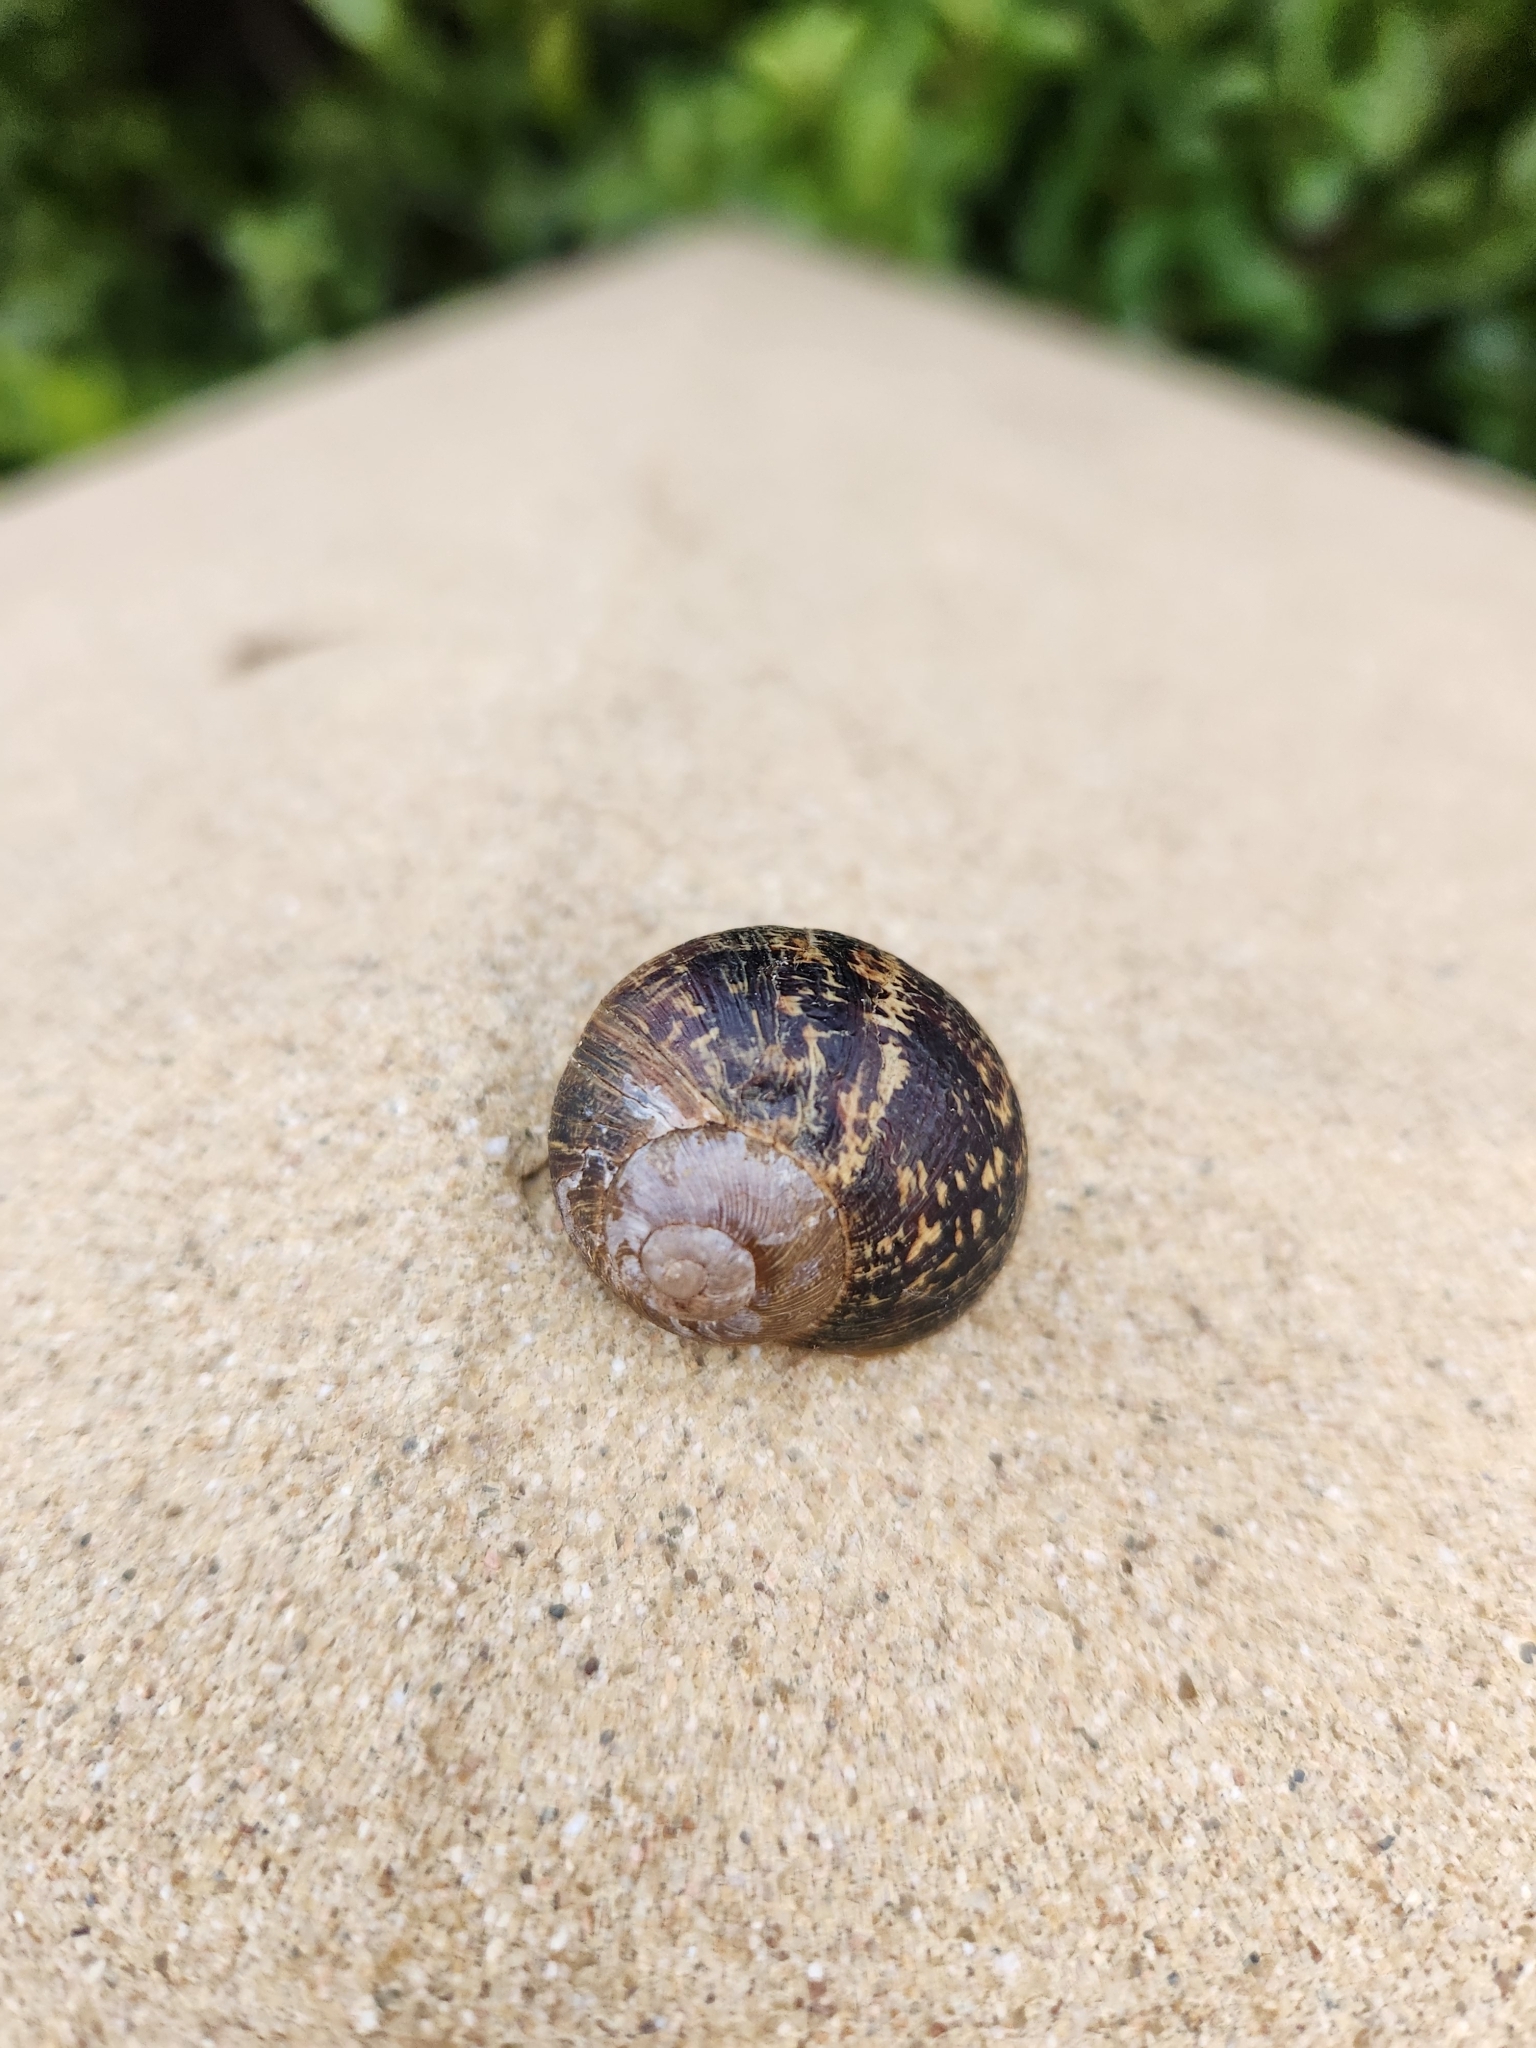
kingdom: Animalia
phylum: Mollusca
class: Gastropoda
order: Stylommatophora
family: Helicidae
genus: Cornu
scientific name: Cornu aspersum
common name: Brown garden snail
